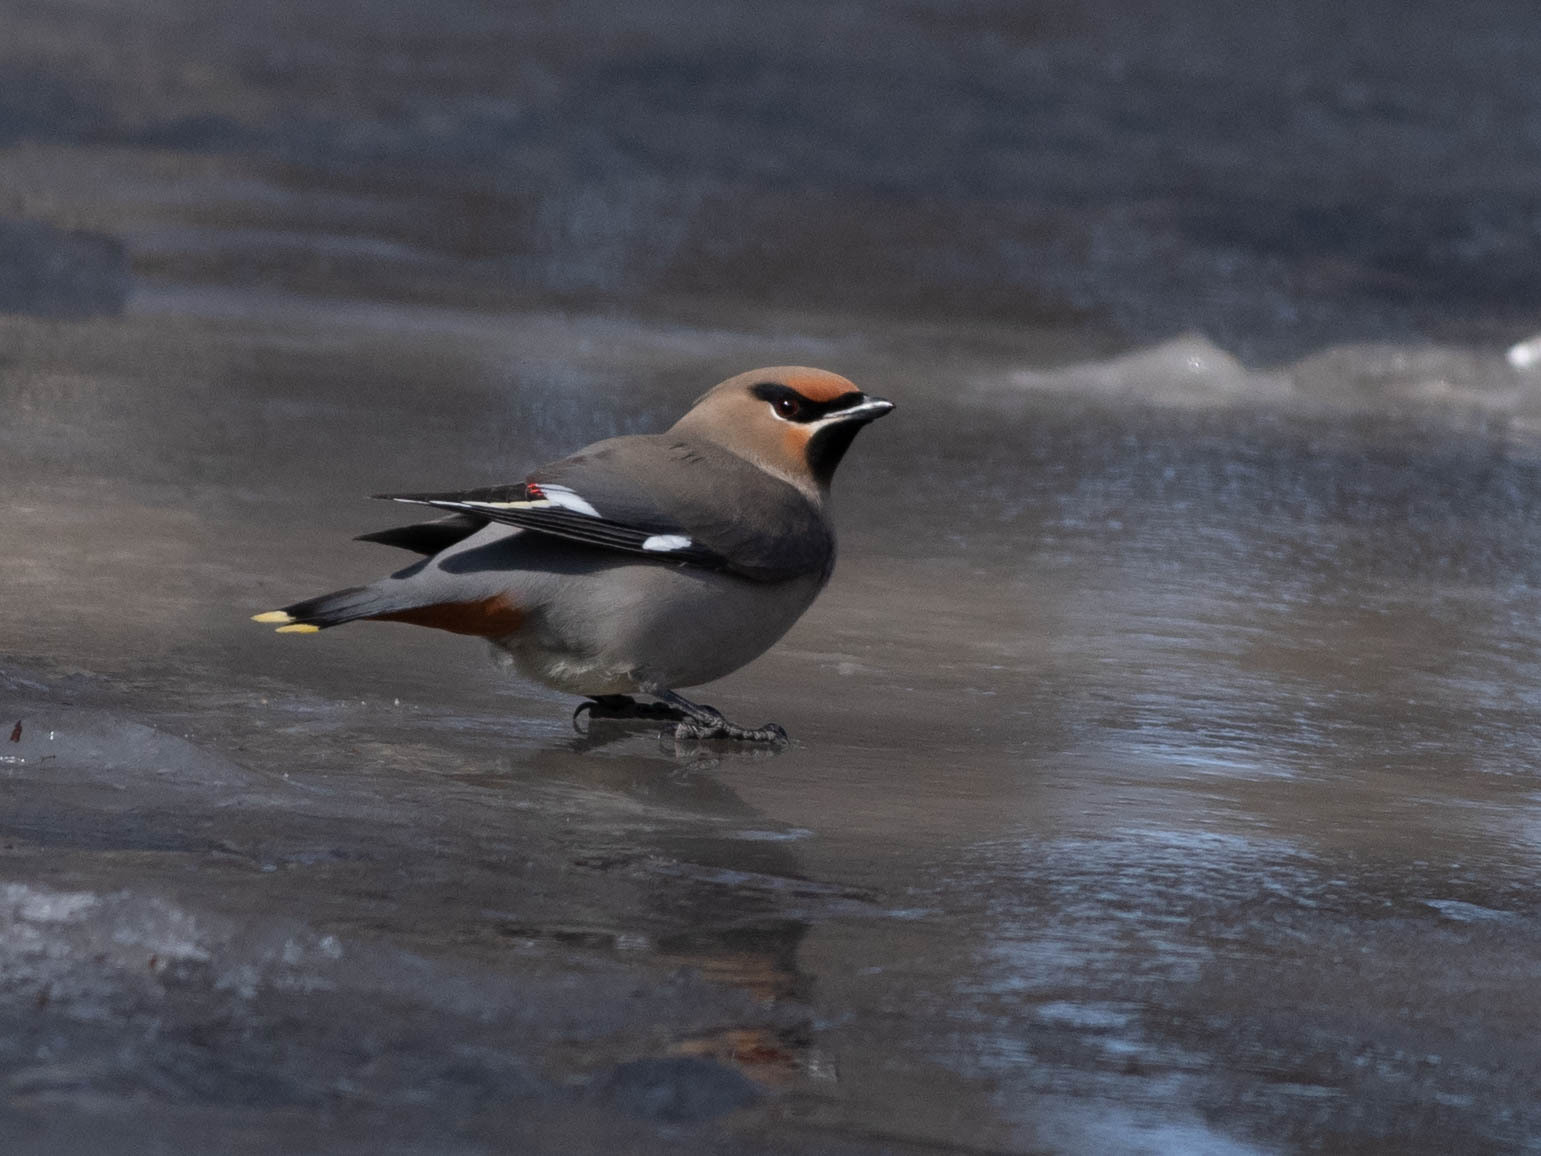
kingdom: Animalia
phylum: Chordata
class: Aves
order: Passeriformes
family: Bombycillidae
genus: Bombycilla
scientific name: Bombycilla garrulus
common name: Bohemian waxwing
